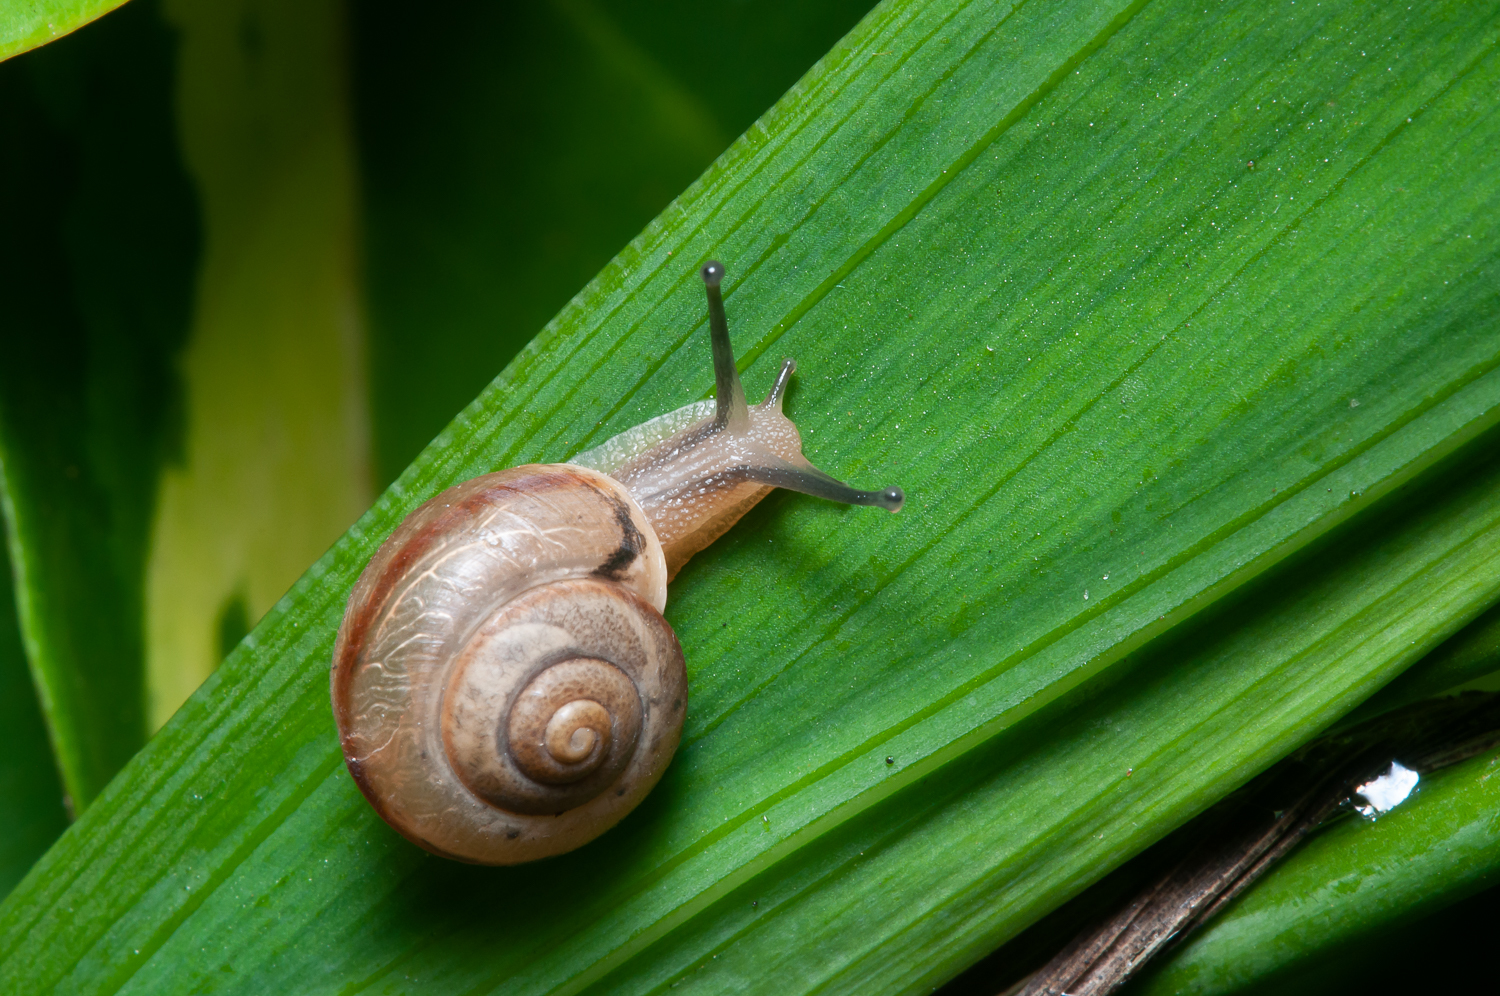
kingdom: Animalia
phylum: Mollusca
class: Gastropoda
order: Stylommatophora
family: Camaenidae
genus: Bradybaena
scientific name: Bradybaena similaris
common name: Asian trampsnail
